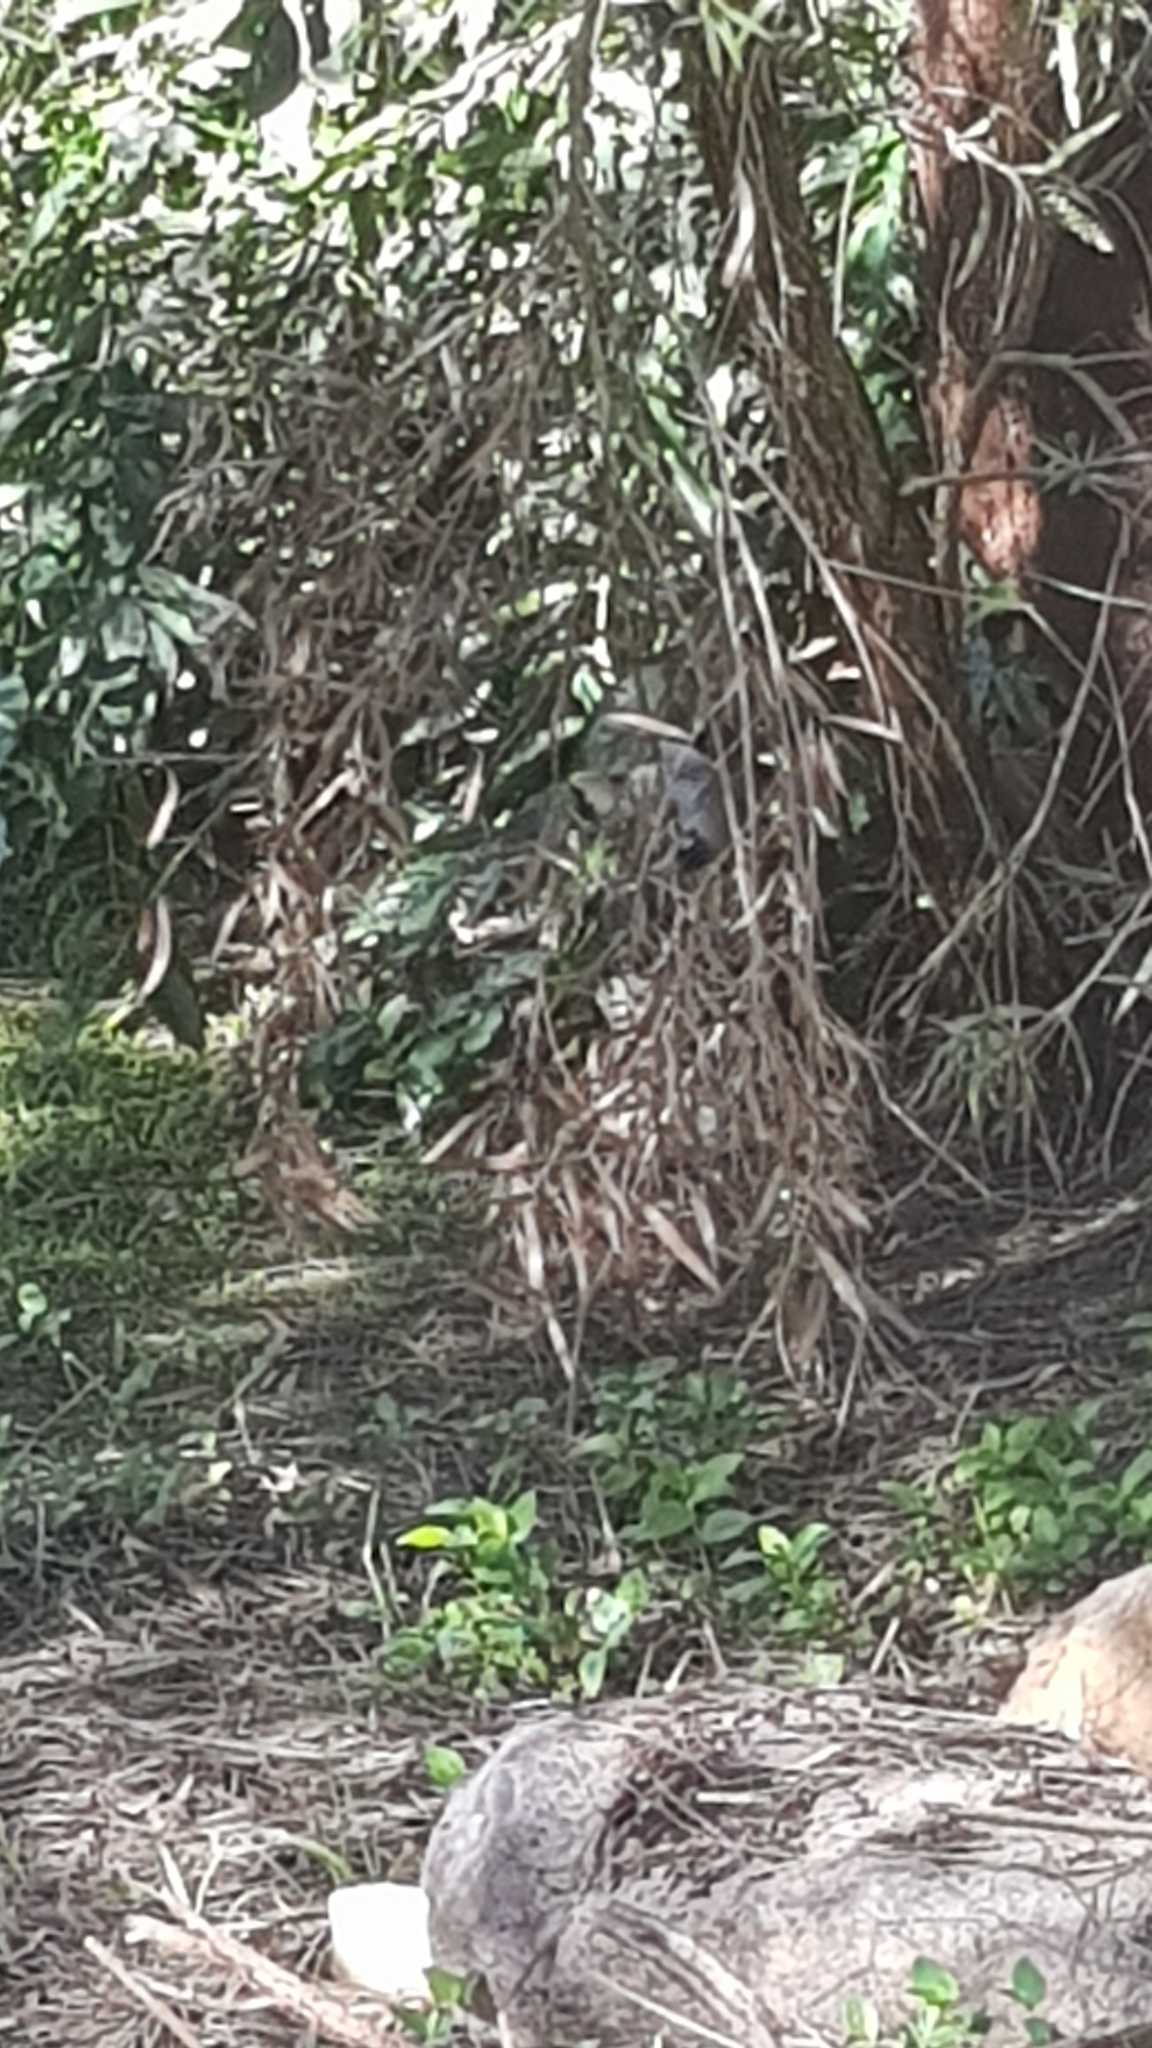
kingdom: Animalia
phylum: Chordata
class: Aves
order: Passeriformes
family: Meliphagidae
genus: Manorina
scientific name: Manorina melanocephala
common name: Noisy miner
